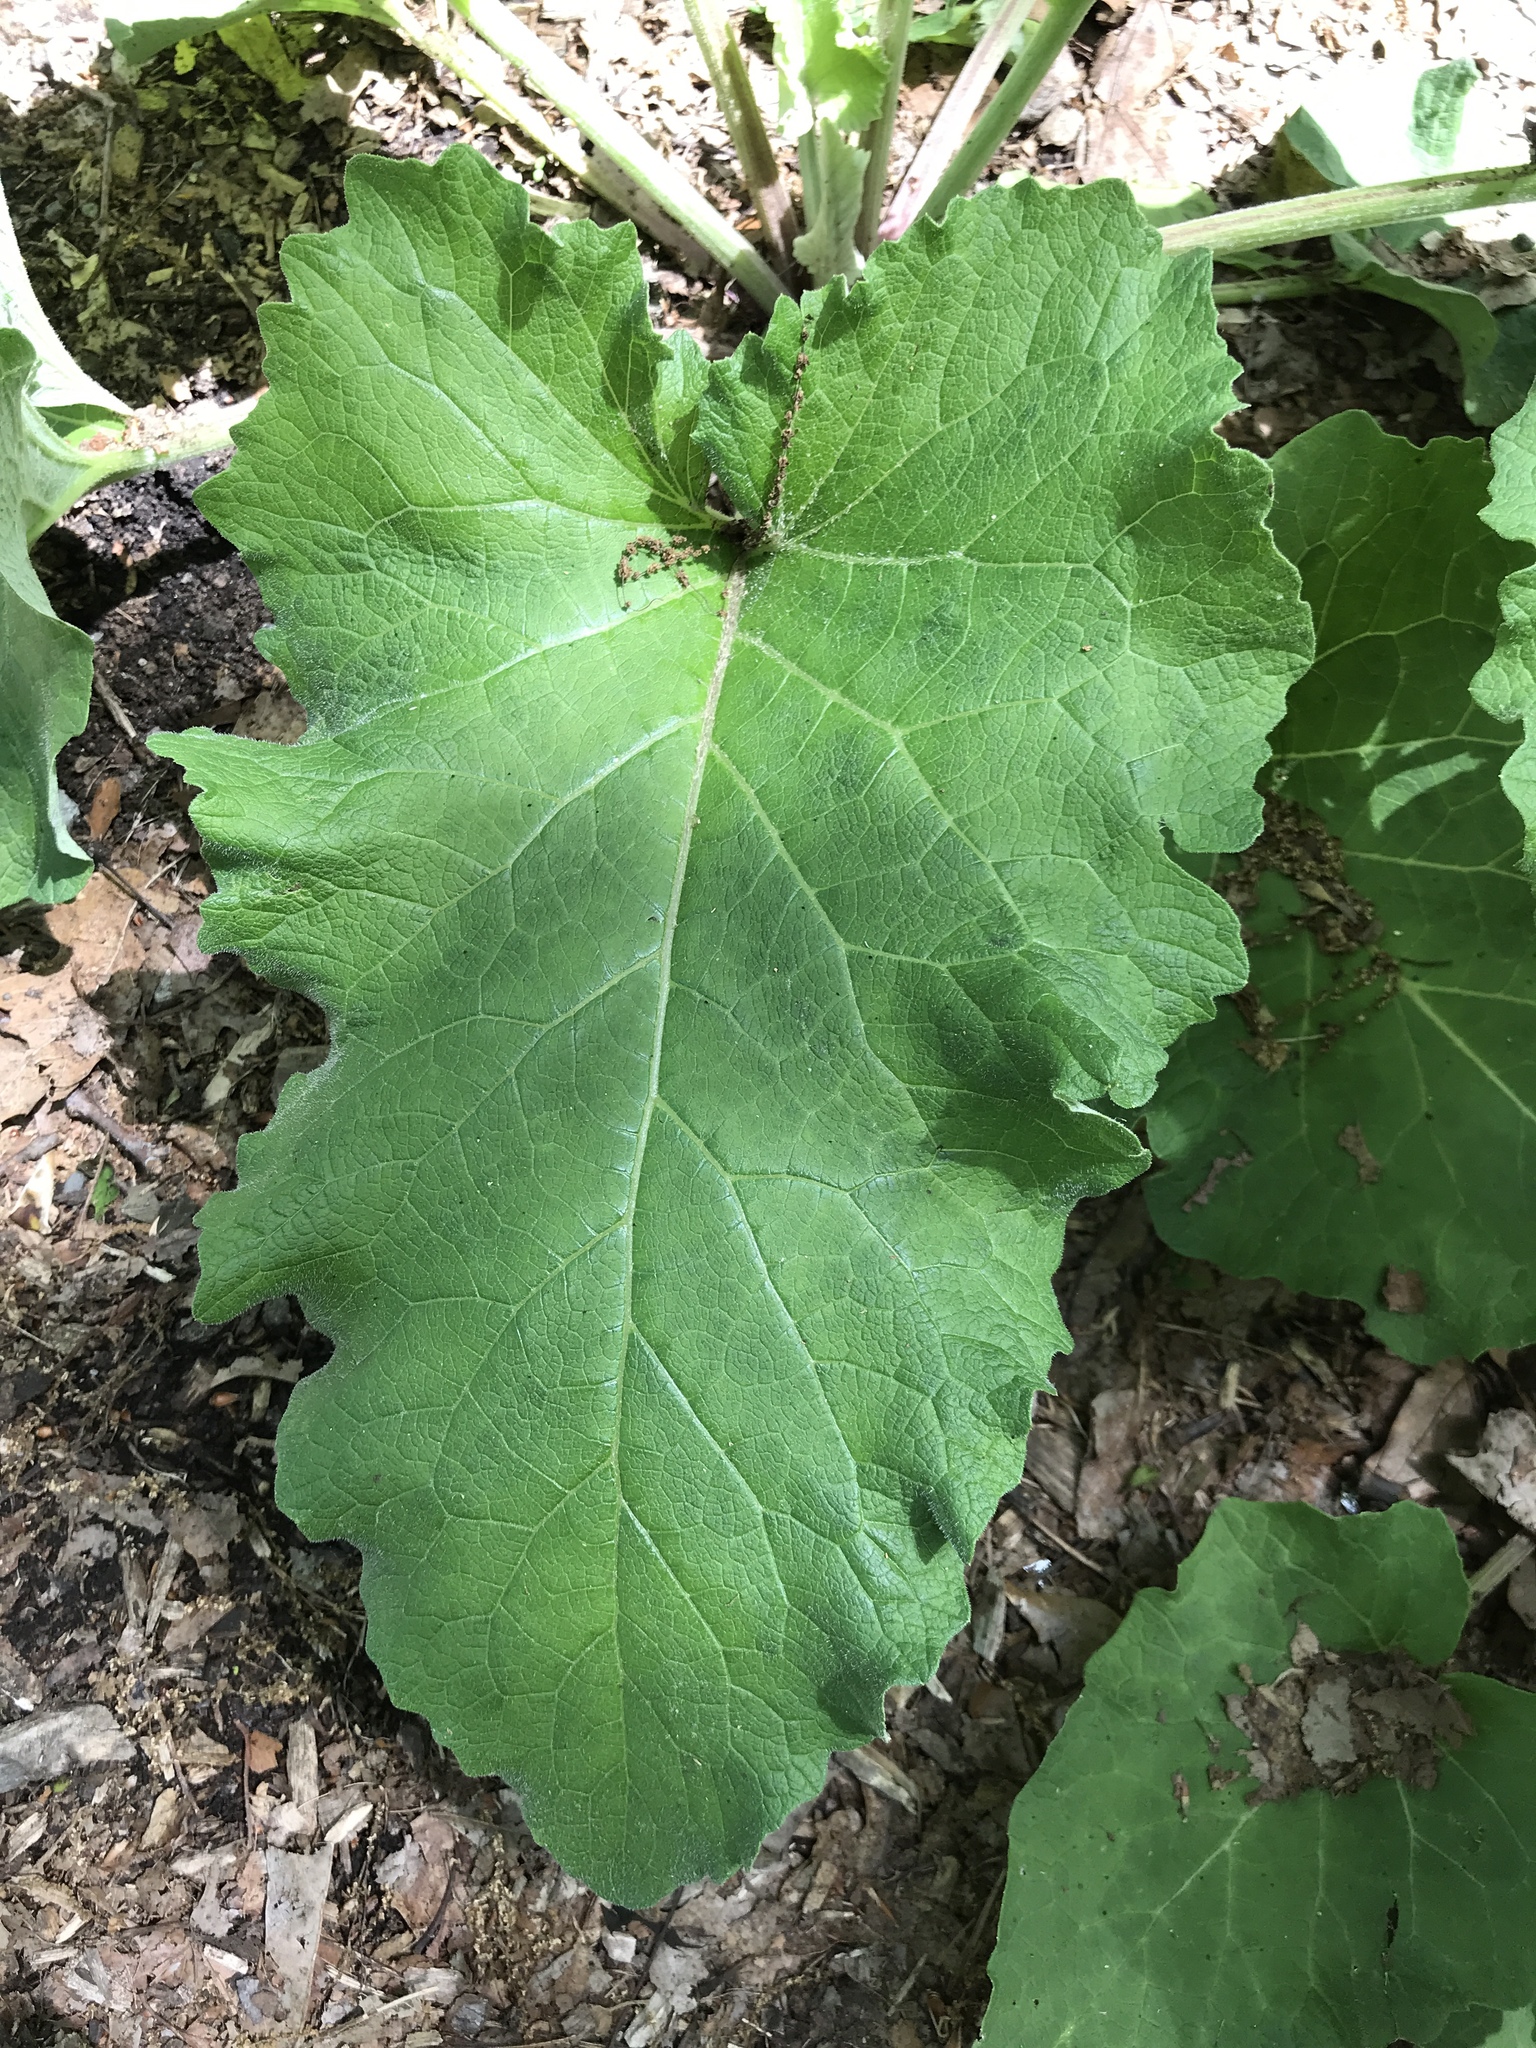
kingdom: Plantae
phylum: Tracheophyta
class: Magnoliopsida
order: Asterales
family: Asteraceae
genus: Arctium
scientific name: Arctium
